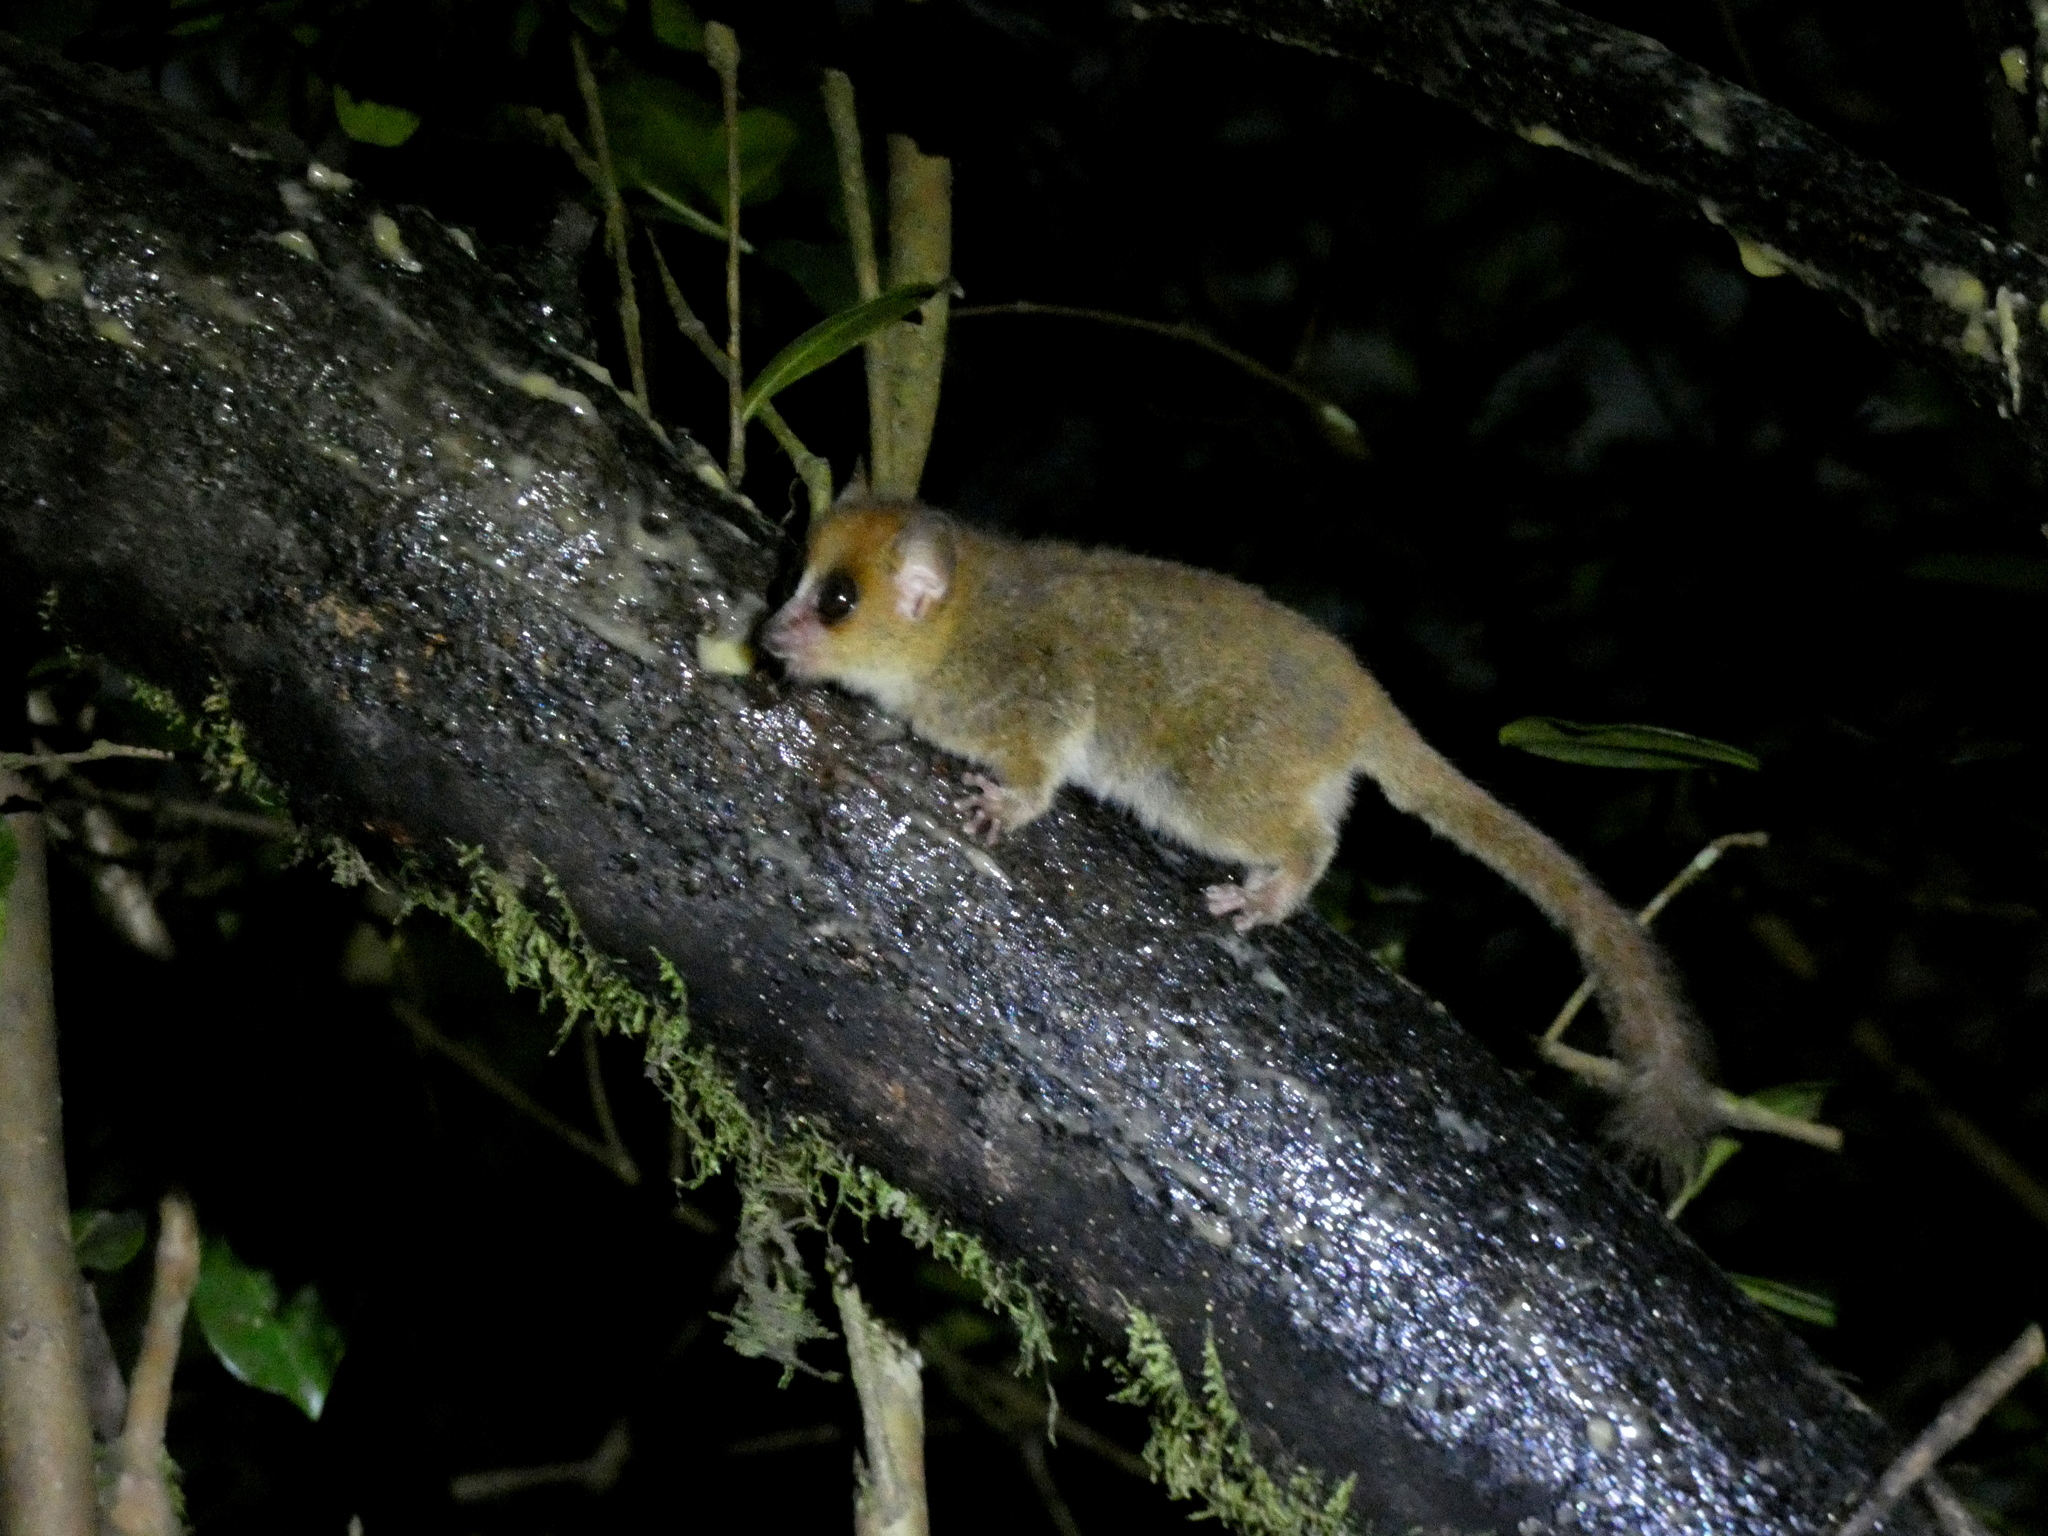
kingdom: Animalia
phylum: Chordata
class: Mammalia
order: Primates
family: Cheirogaleidae
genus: Microcebus
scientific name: Microcebus rufus
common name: Brown mouse lemur
